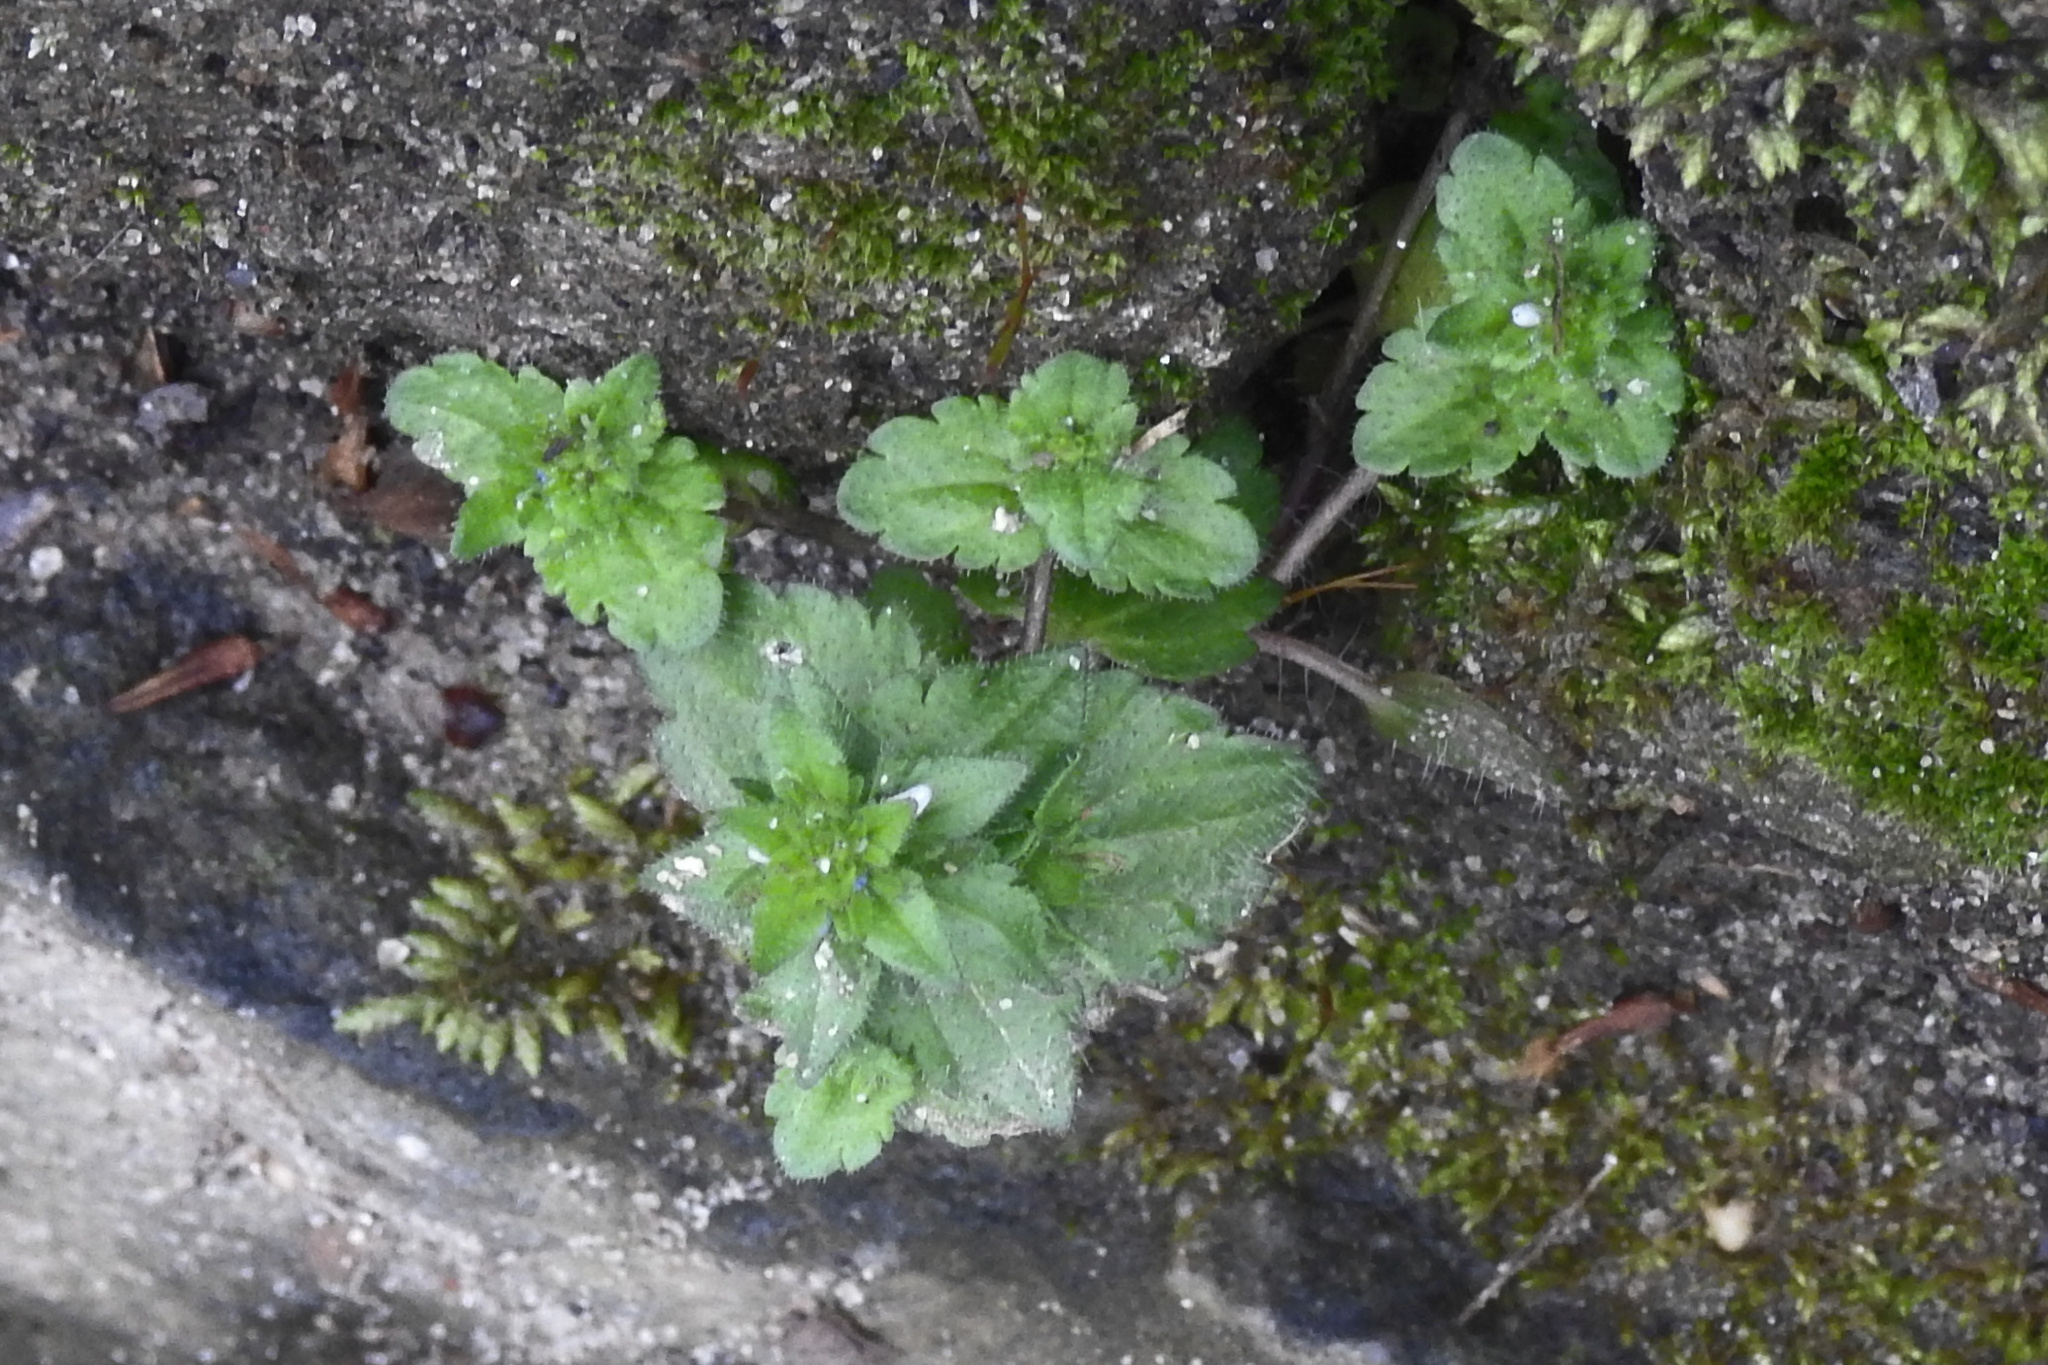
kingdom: Plantae
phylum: Tracheophyta
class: Magnoliopsida
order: Lamiales
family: Plantaginaceae
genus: Veronica
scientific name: Veronica arvensis
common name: Corn speedwell
